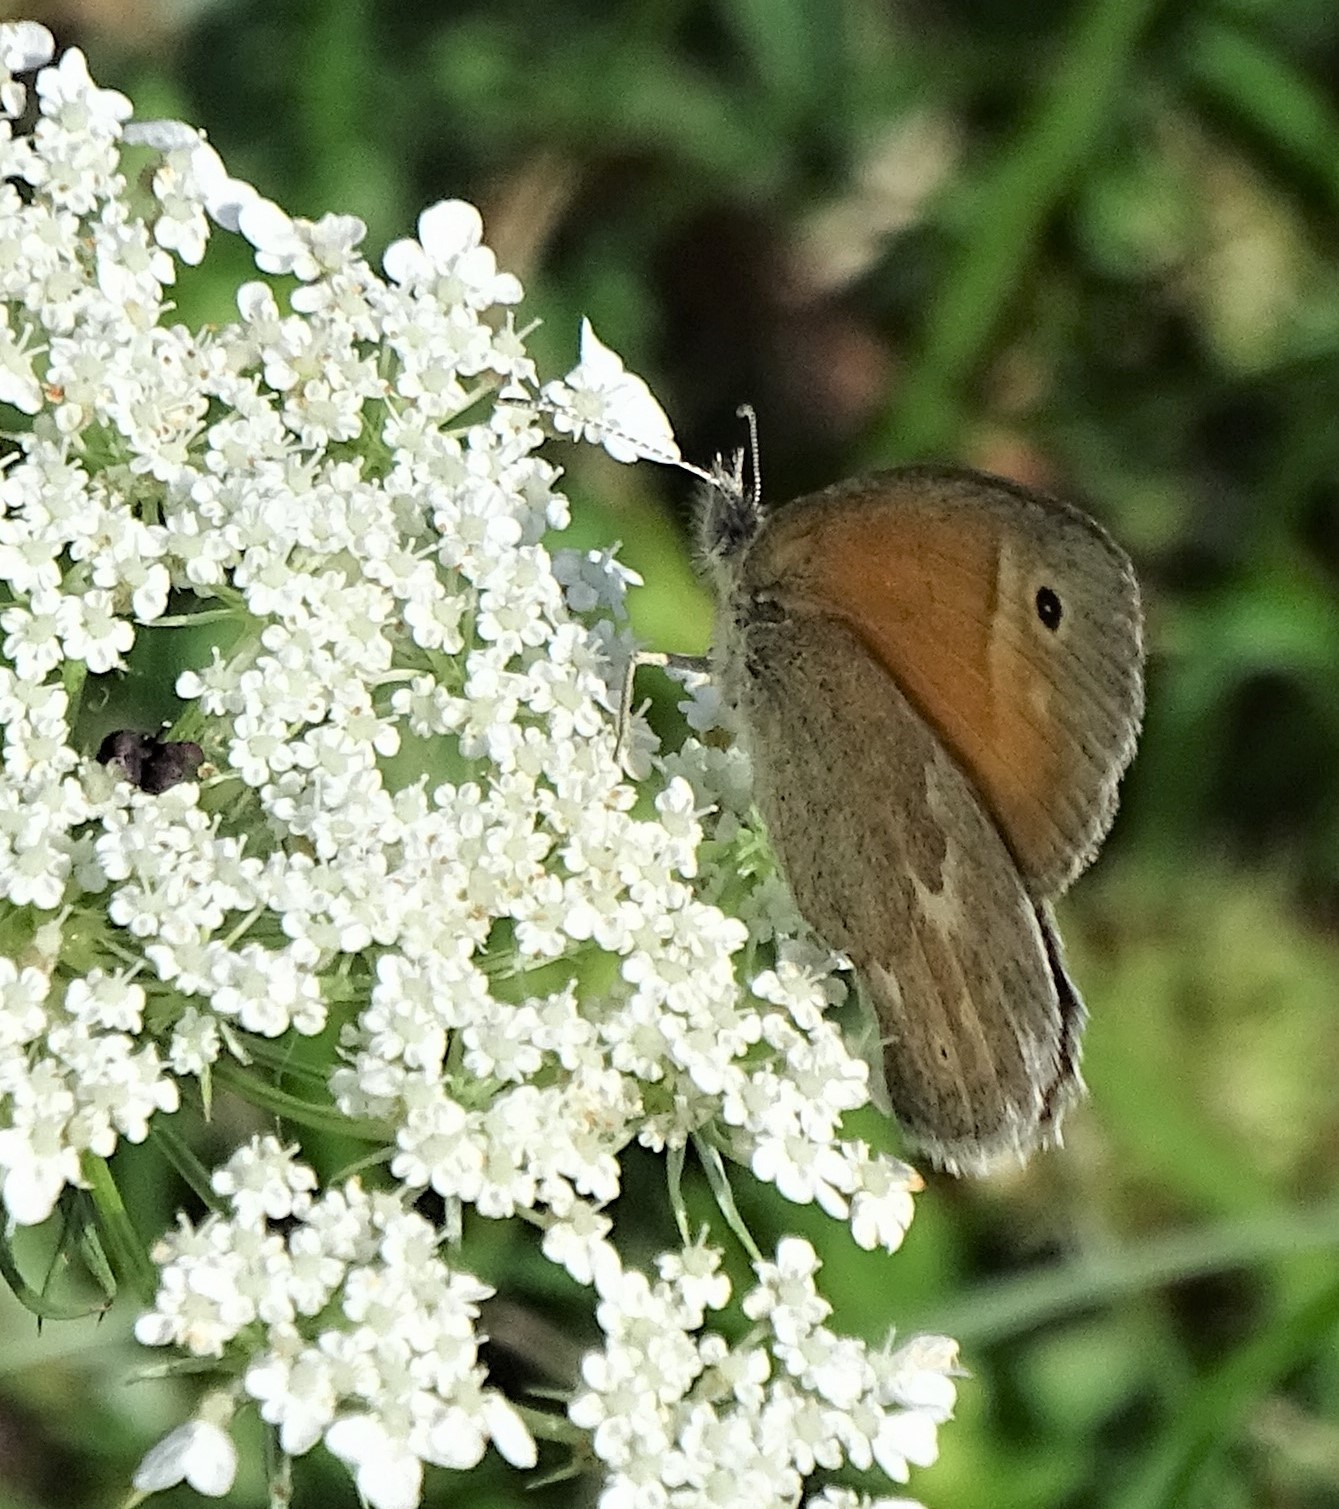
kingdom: Animalia
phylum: Arthropoda
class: Insecta
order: Lepidoptera
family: Nymphalidae
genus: Coenonympha
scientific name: Coenonympha california
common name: Common ringlet
